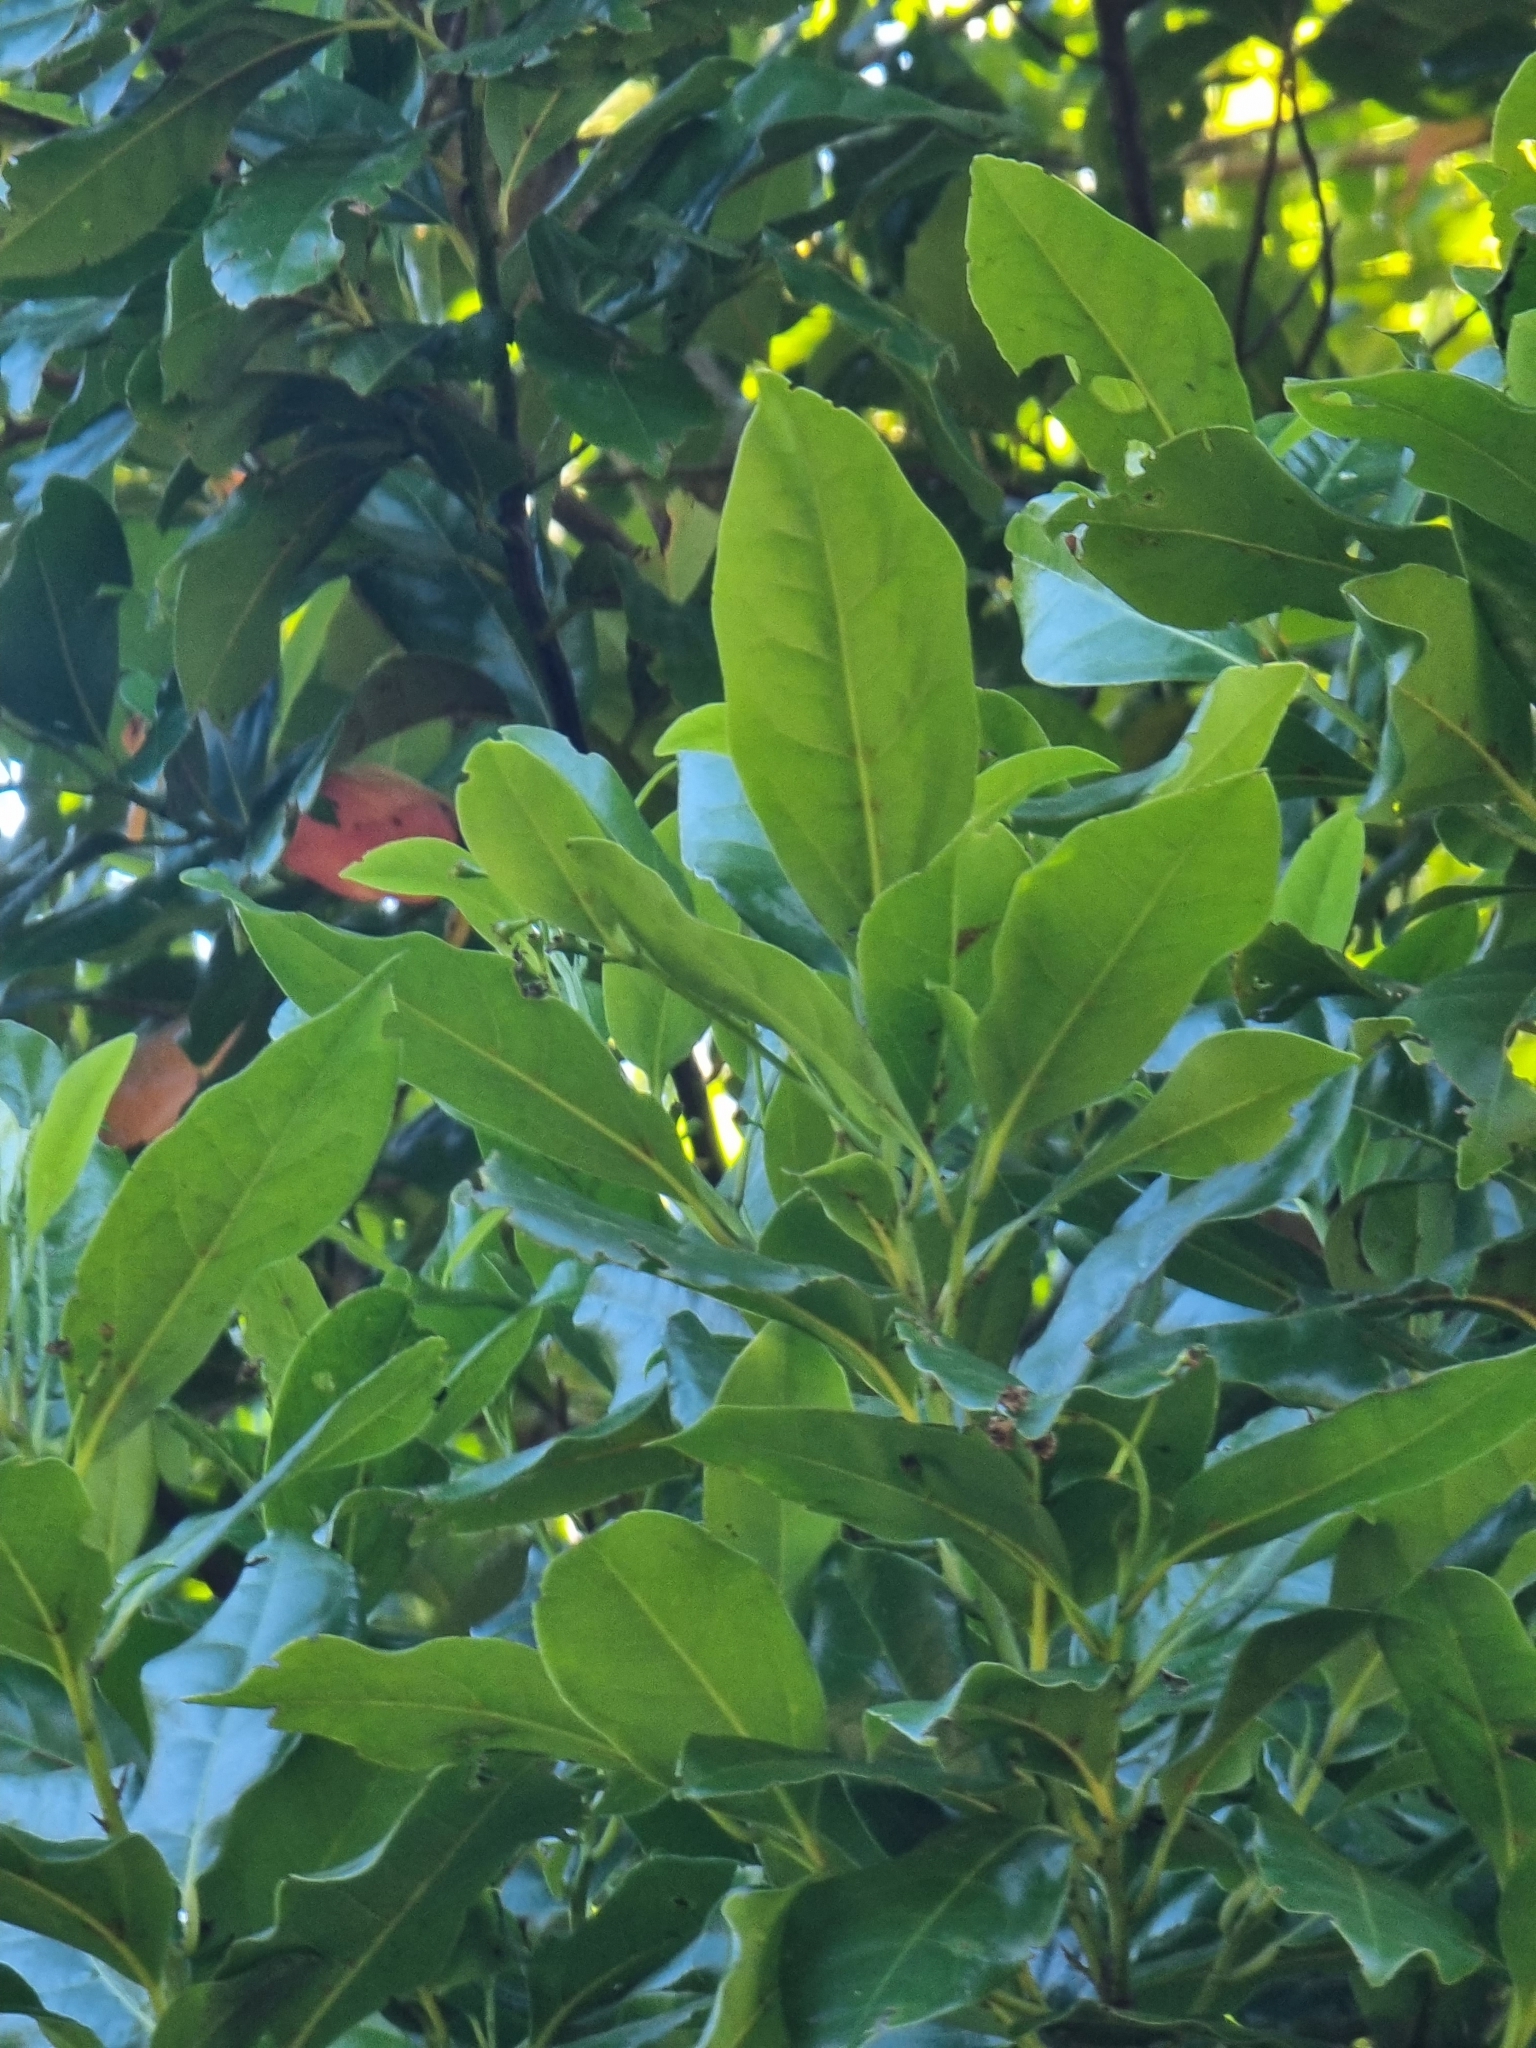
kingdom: Plantae
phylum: Tracheophyta
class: Magnoliopsida
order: Laurales
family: Lauraceae
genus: Mespilodaphne
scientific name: Mespilodaphne foetens
